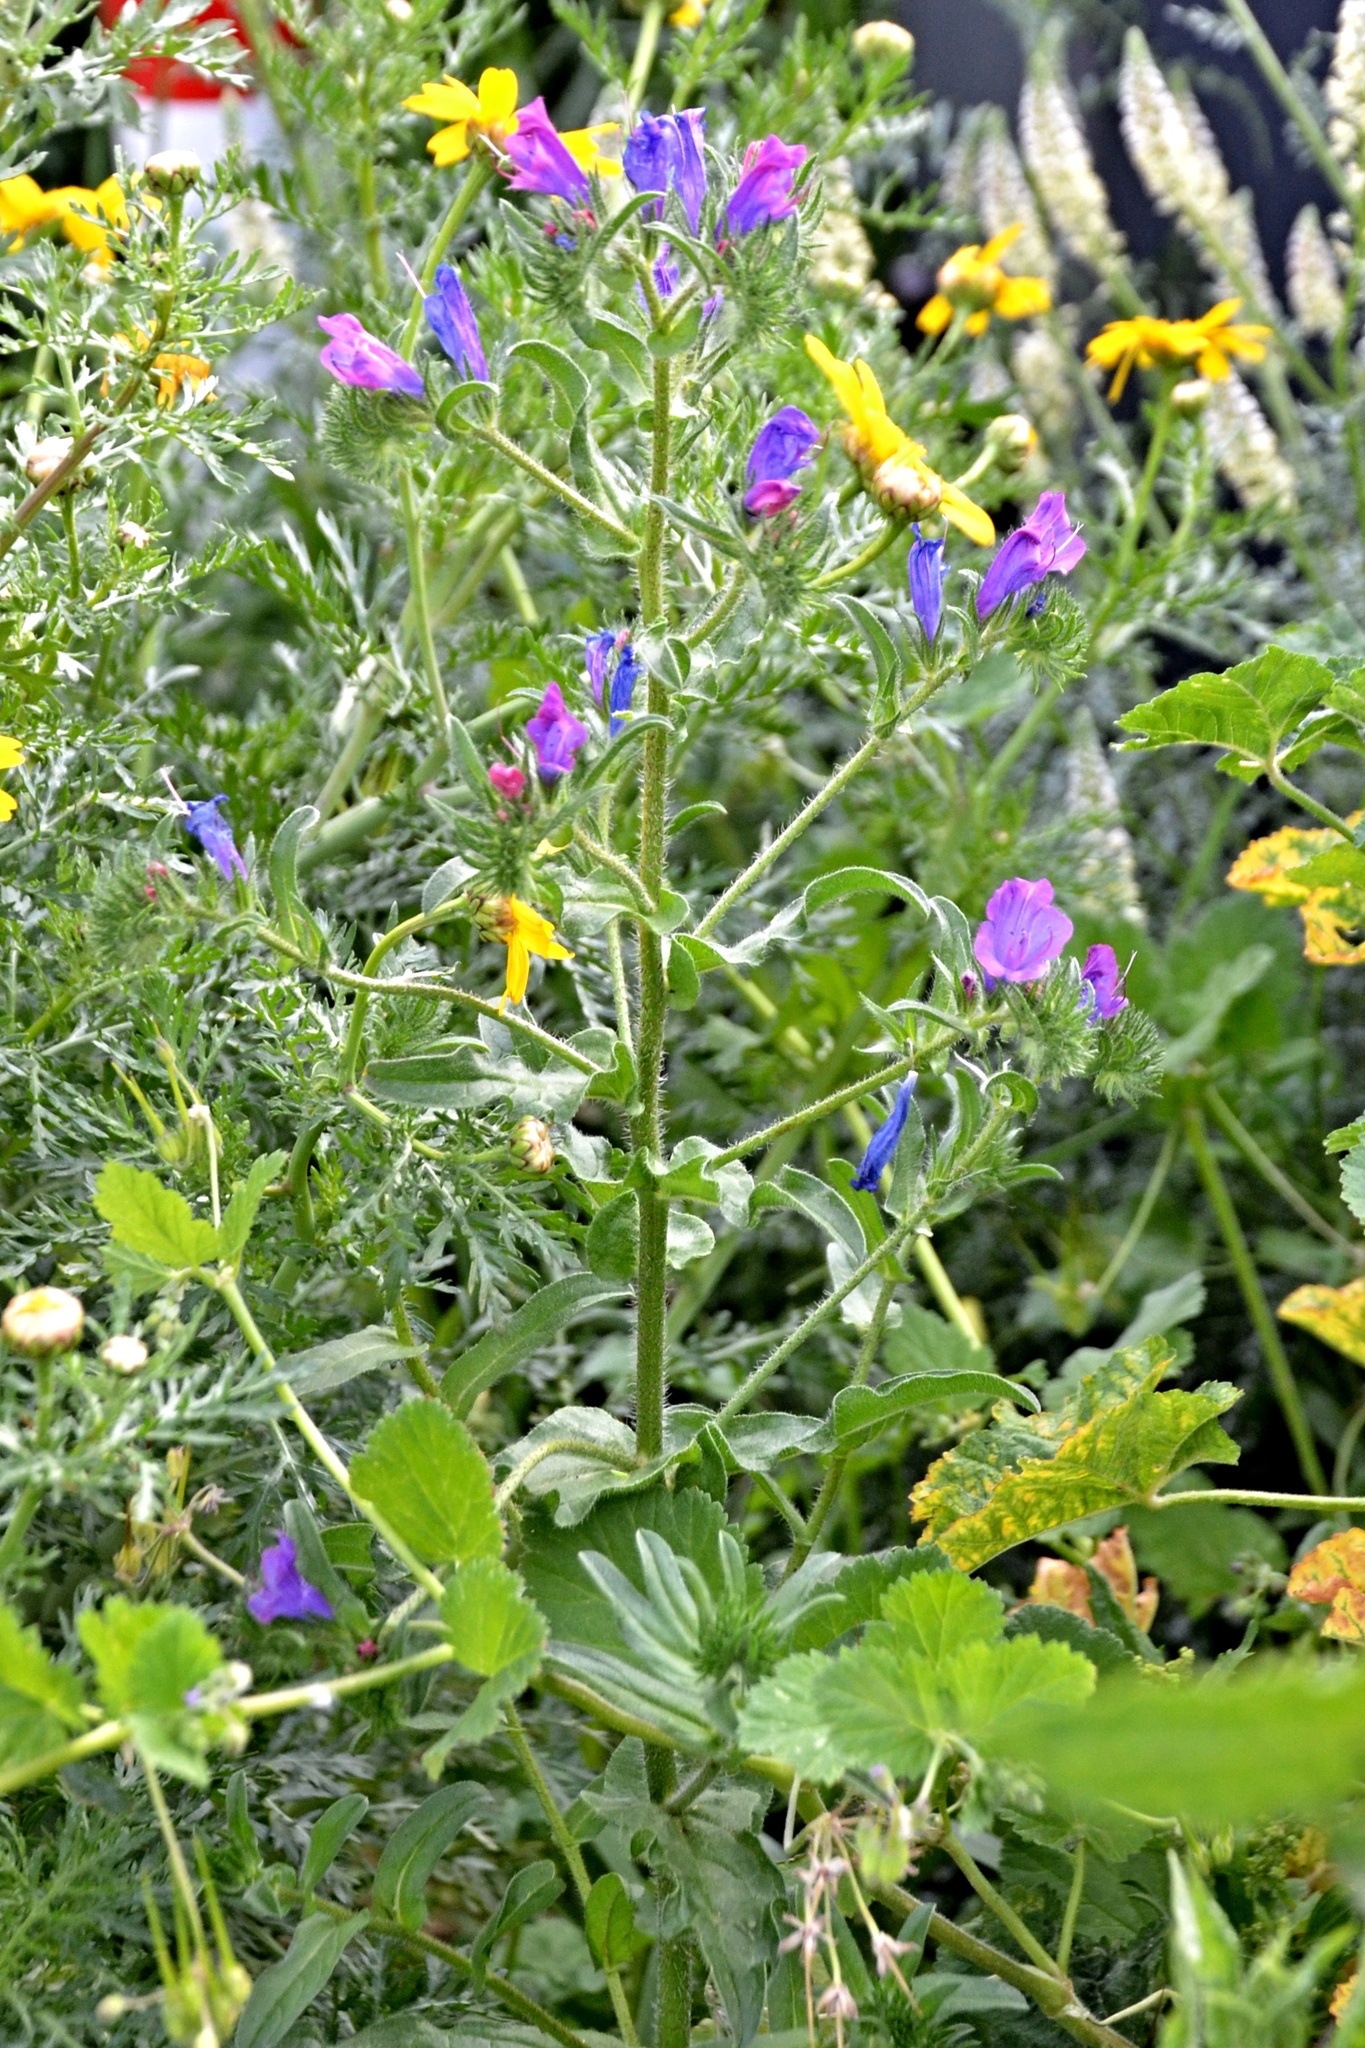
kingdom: Plantae
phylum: Tracheophyta
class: Magnoliopsida
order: Boraginales
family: Boraginaceae
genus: Echium
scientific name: Echium plantagineum
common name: Purple viper's-bugloss
